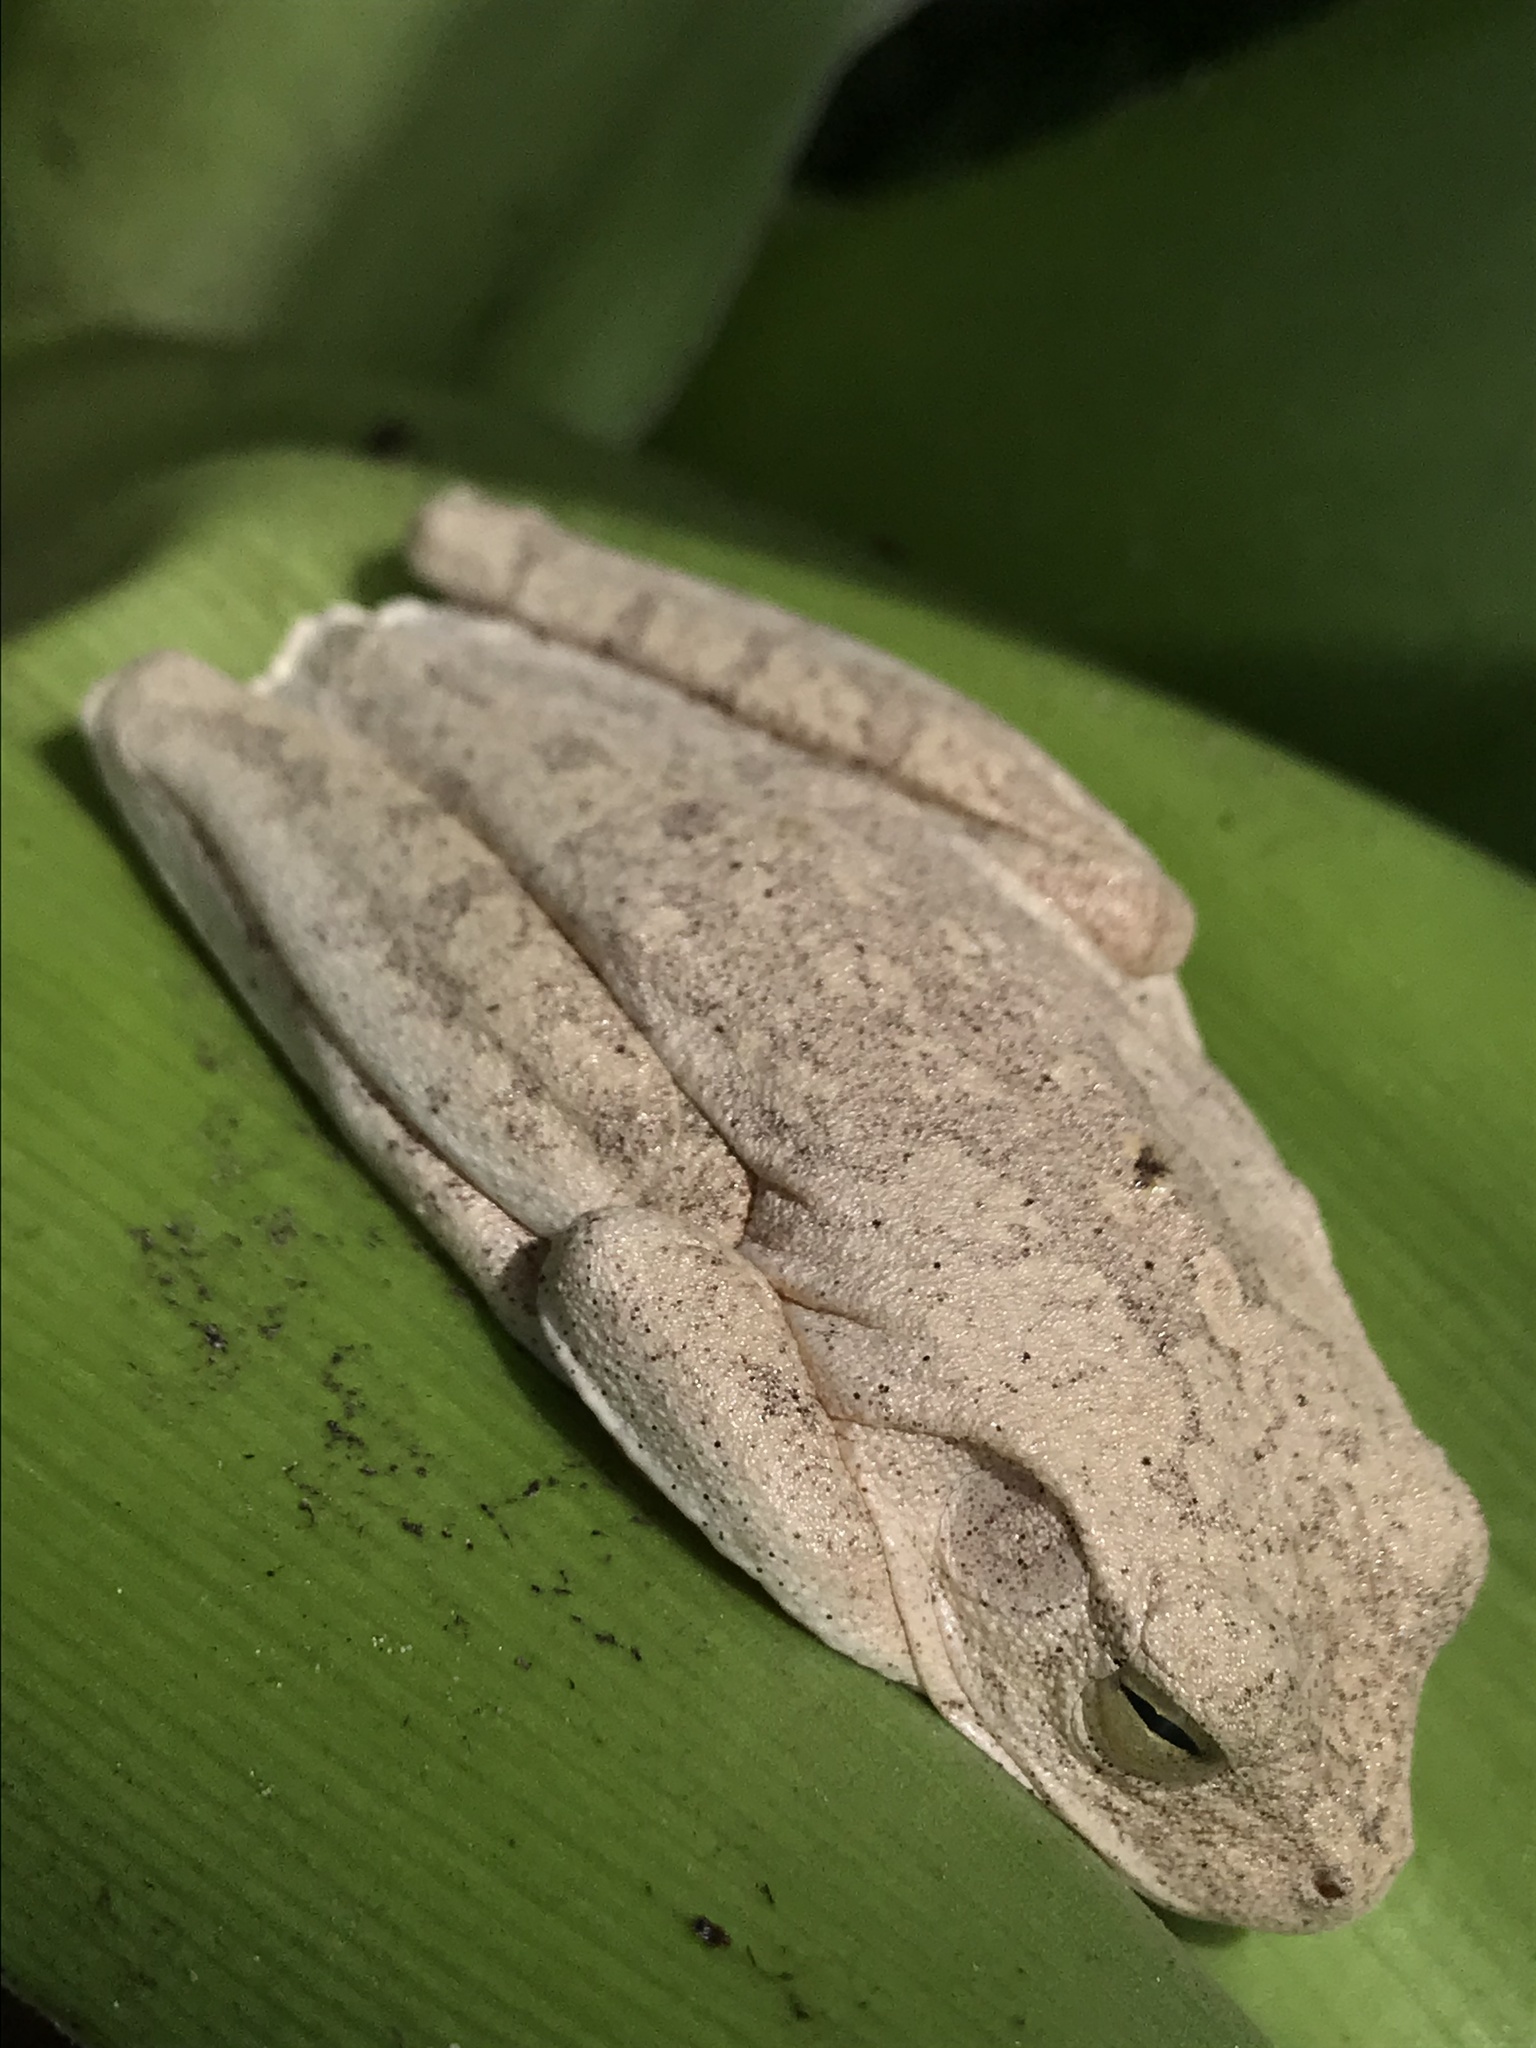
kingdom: Animalia
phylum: Chordata
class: Amphibia
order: Anura
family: Hylidae
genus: Boana
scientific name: Boana platanera
